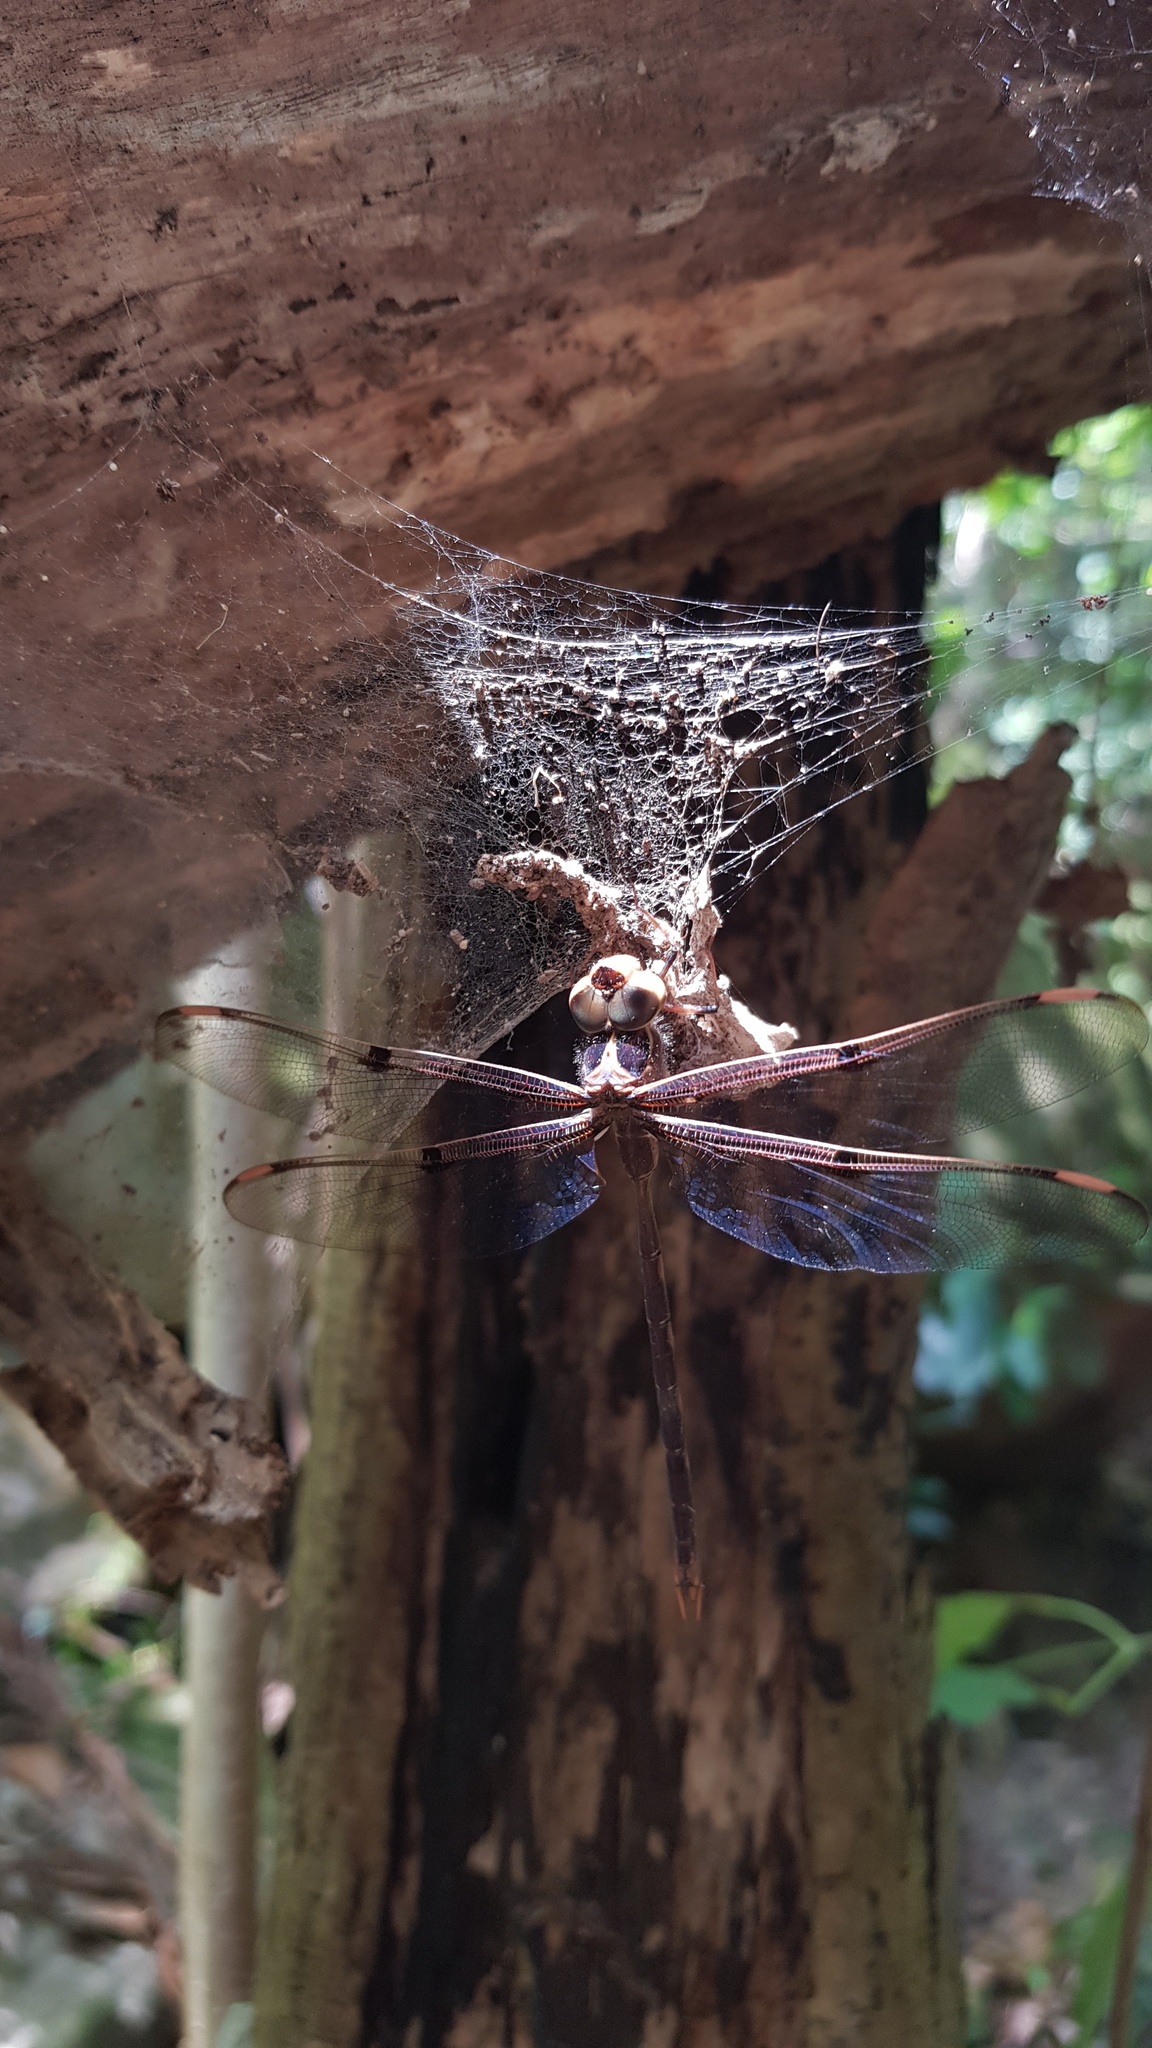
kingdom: Animalia
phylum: Arthropoda
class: Insecta
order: Odonata
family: Aeshnidae
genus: Telephlebia
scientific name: Telephlebia godeffroyi
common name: Eastern evening darner
